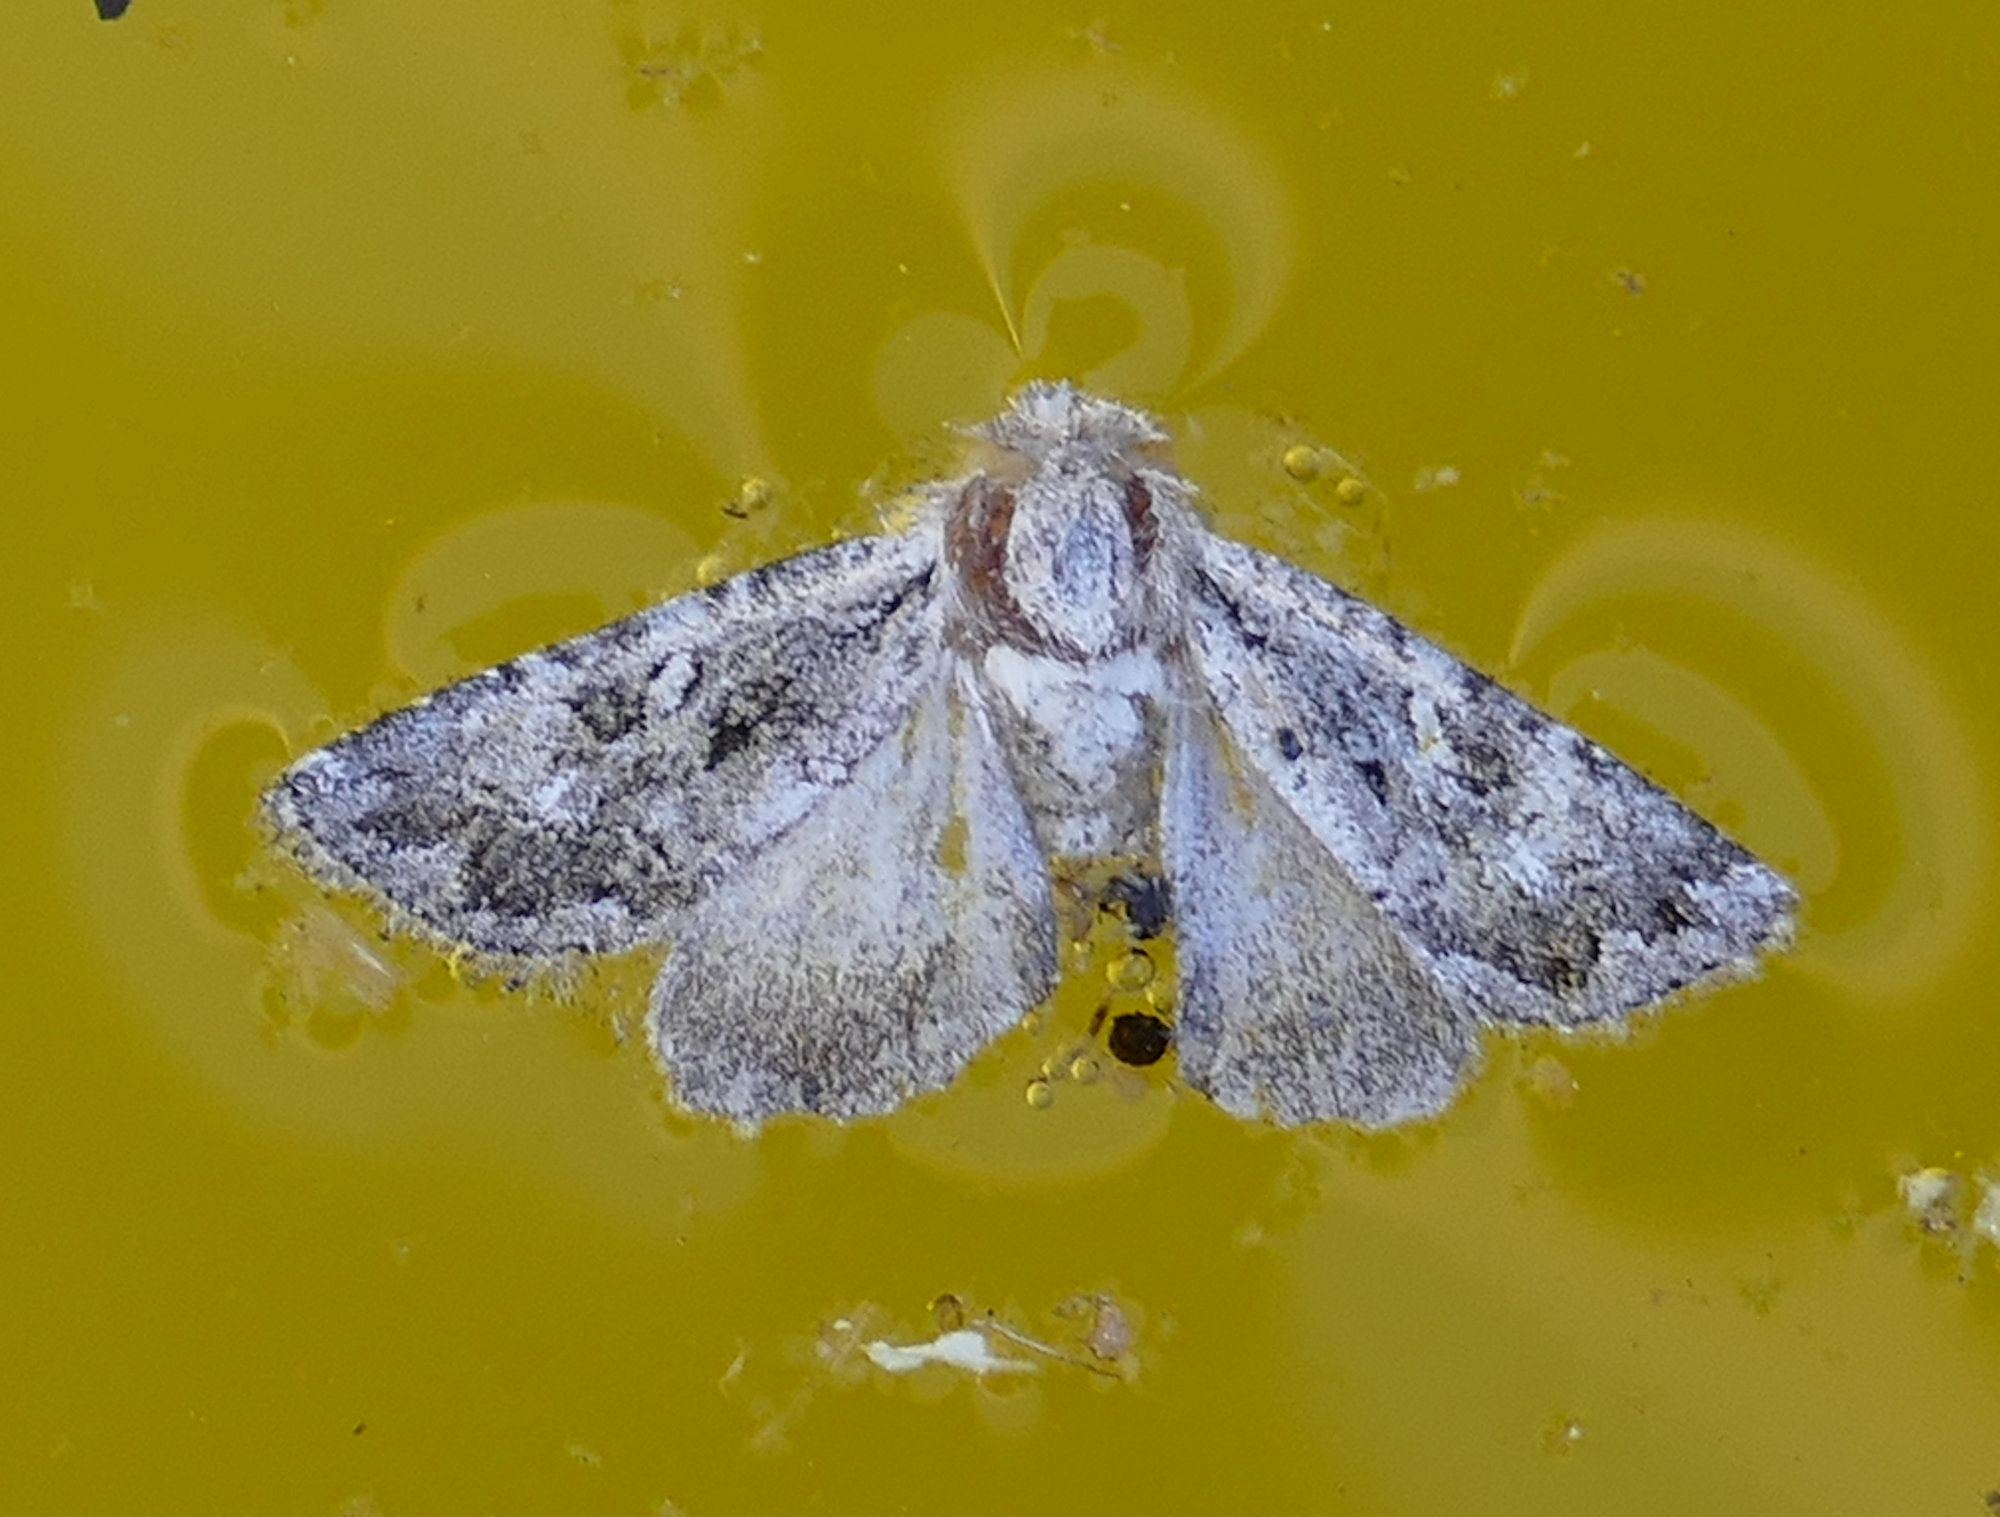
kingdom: Animalia
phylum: Arthropoda
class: Insecta
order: Lepidoptera
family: Noctuidae
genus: Ulolonche
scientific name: Ulolonche orbiculata
